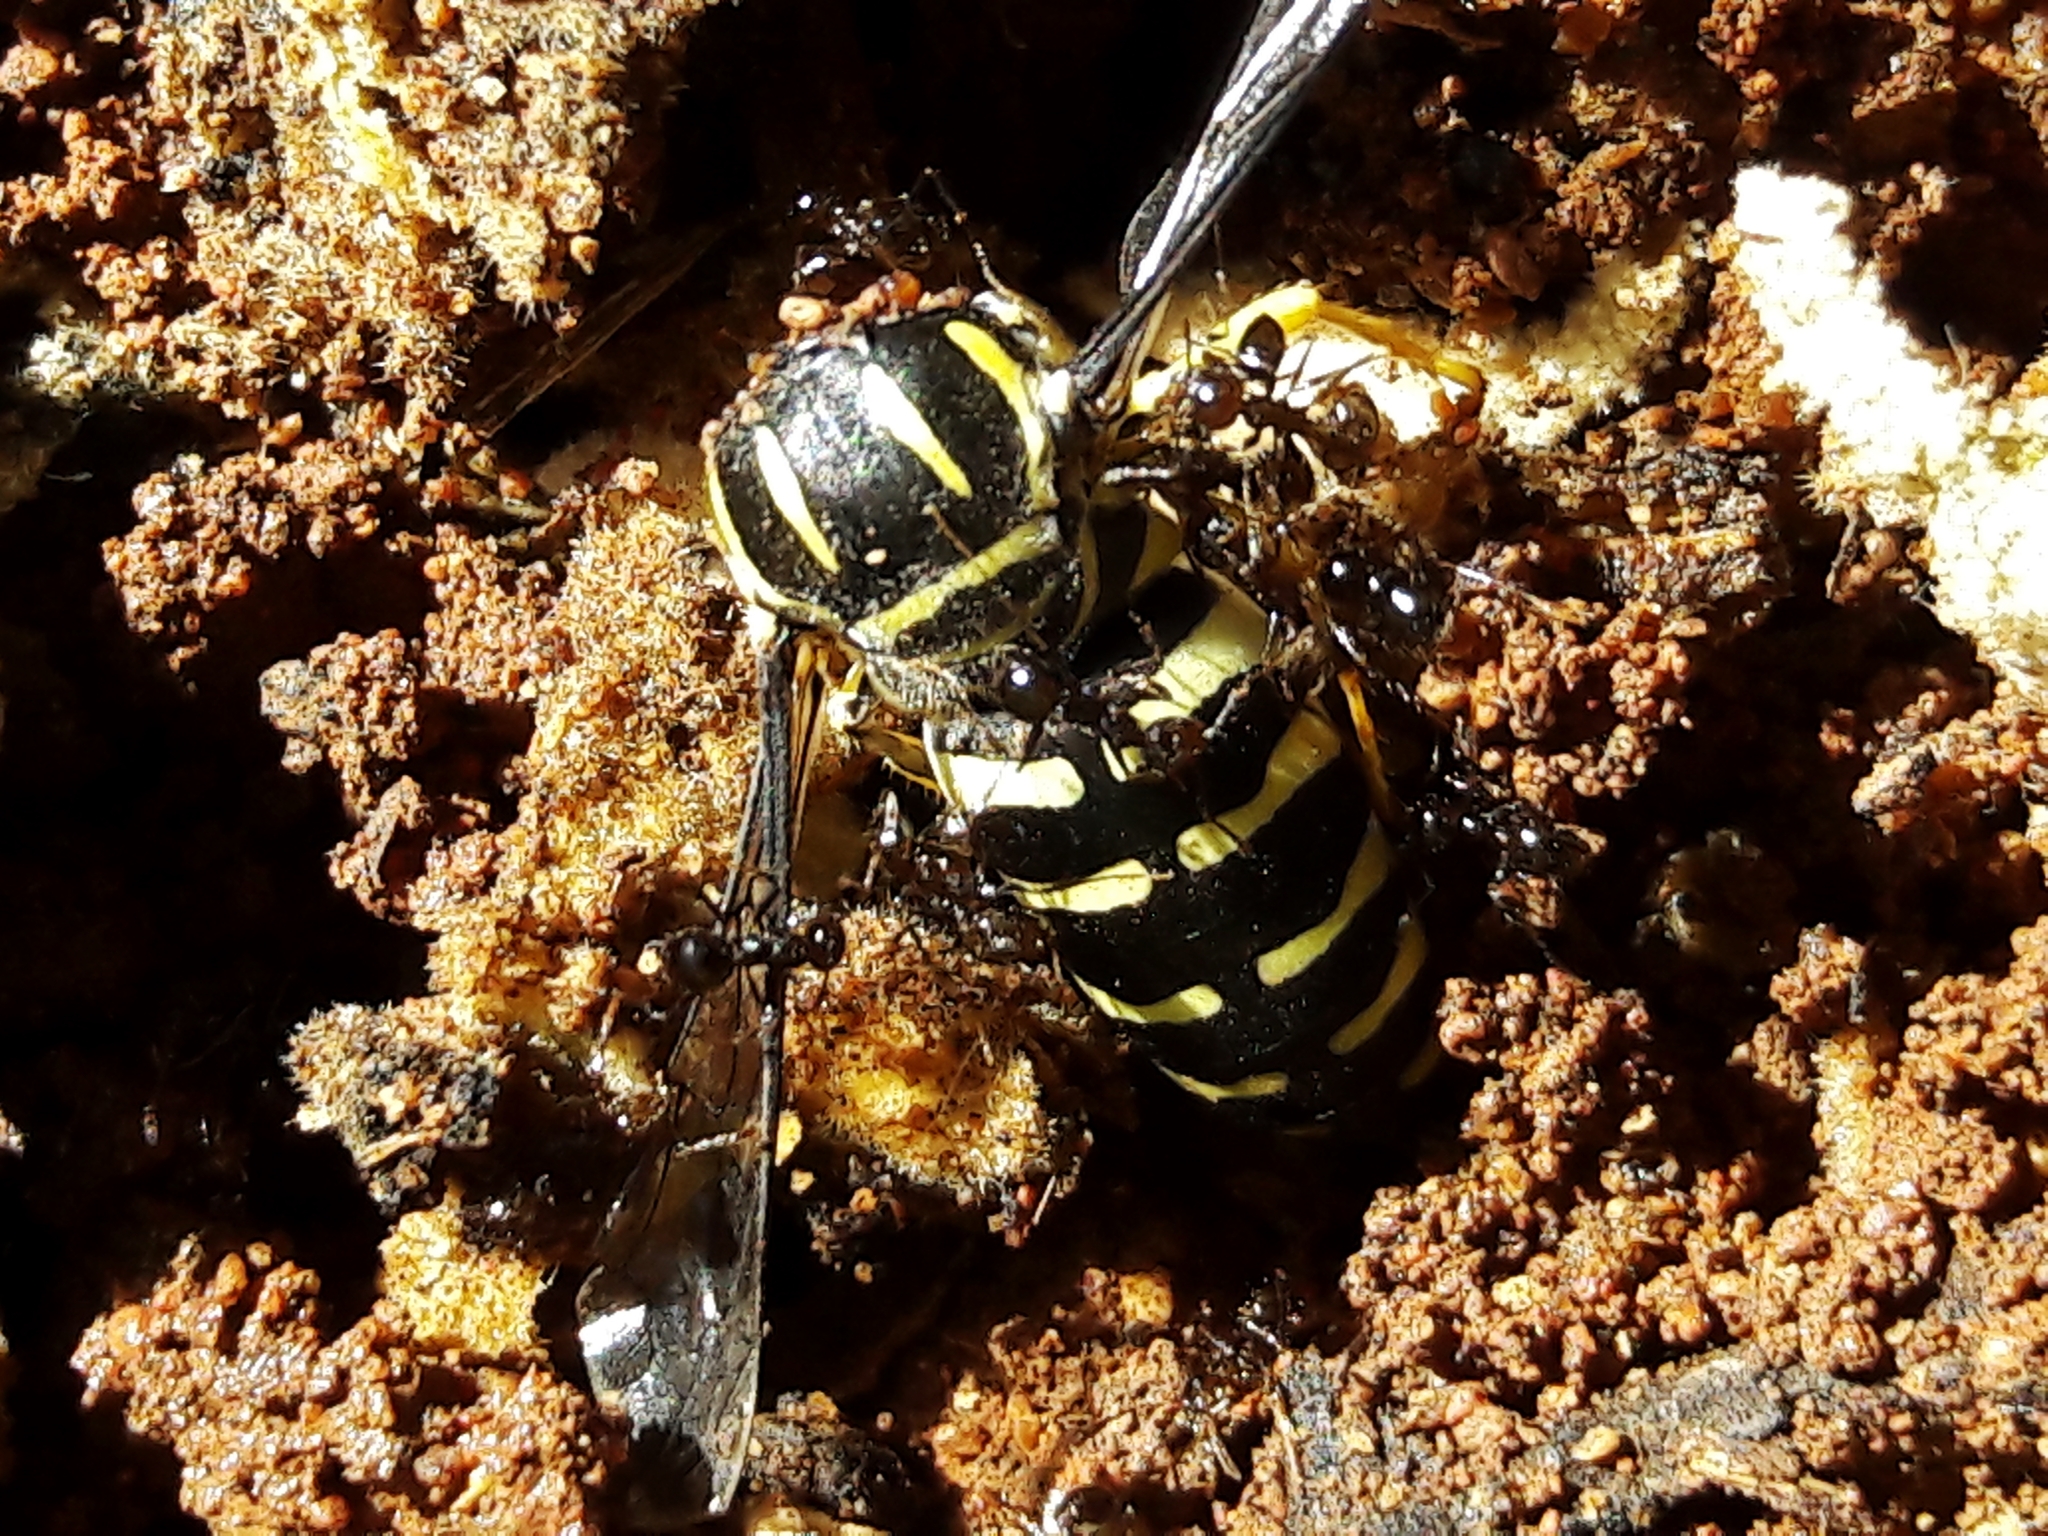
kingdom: Animalia
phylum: Arthropoda
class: Insecta
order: Hymenoptera
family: Crabronidae
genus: Bicyrtes
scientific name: Bicyrtes variegatus
